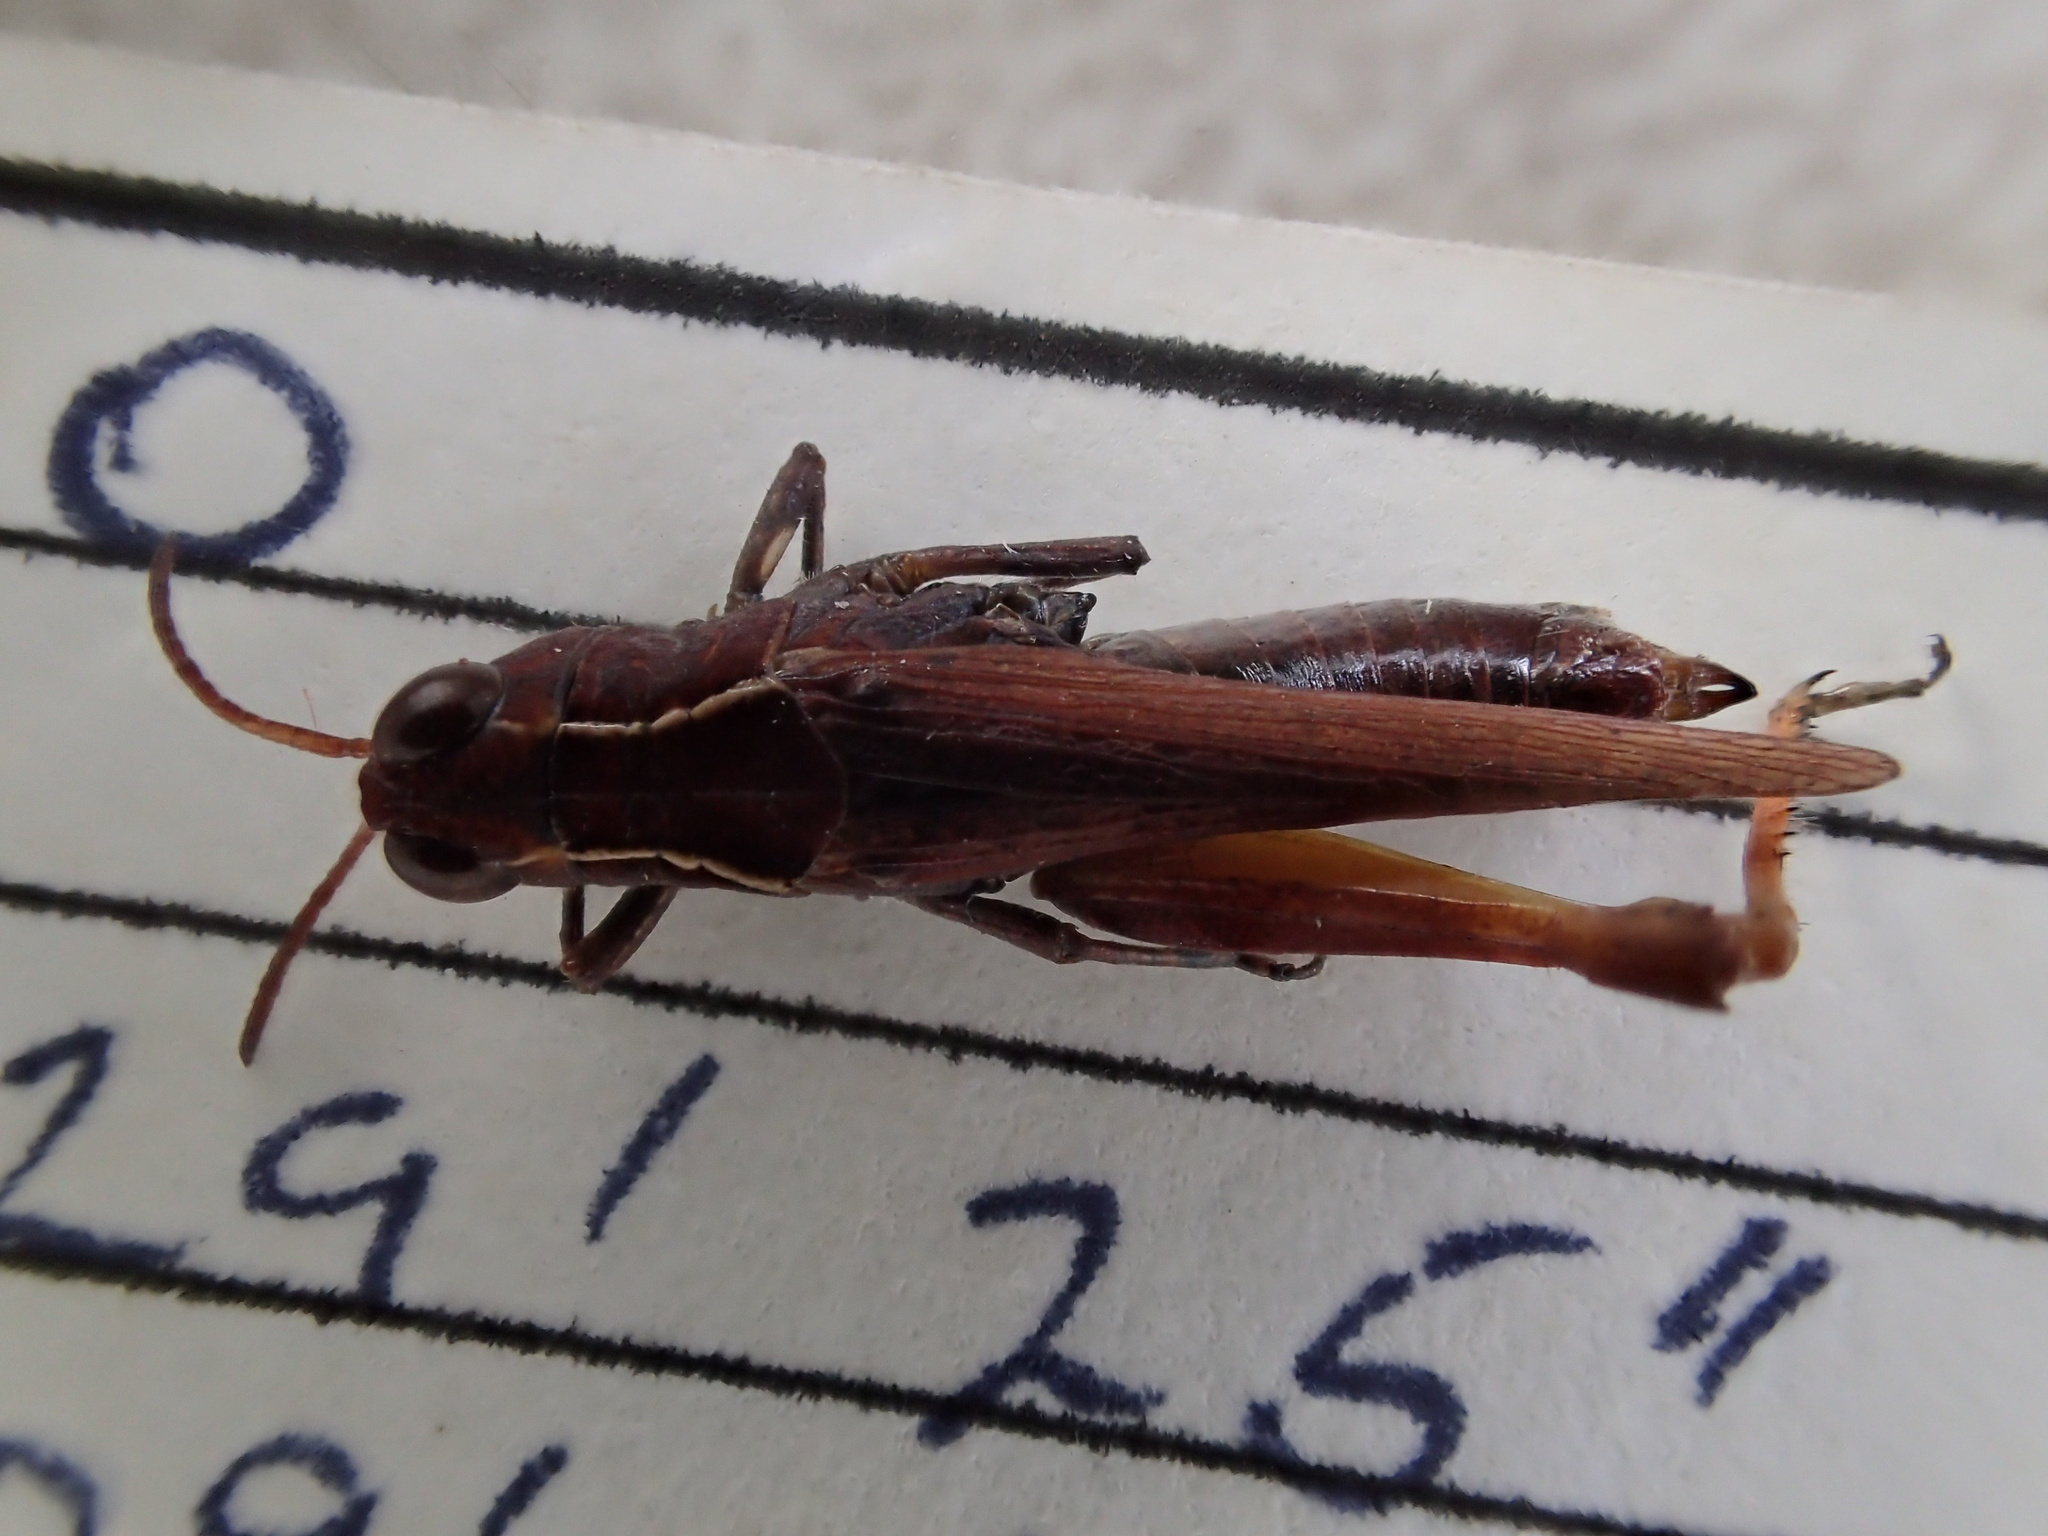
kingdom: Animalia
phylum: Arthropoda
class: Insecta
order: Orthoptera
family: Acrididae
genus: Minyacris
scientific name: Minyacris nana
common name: Tiny grasshopper
